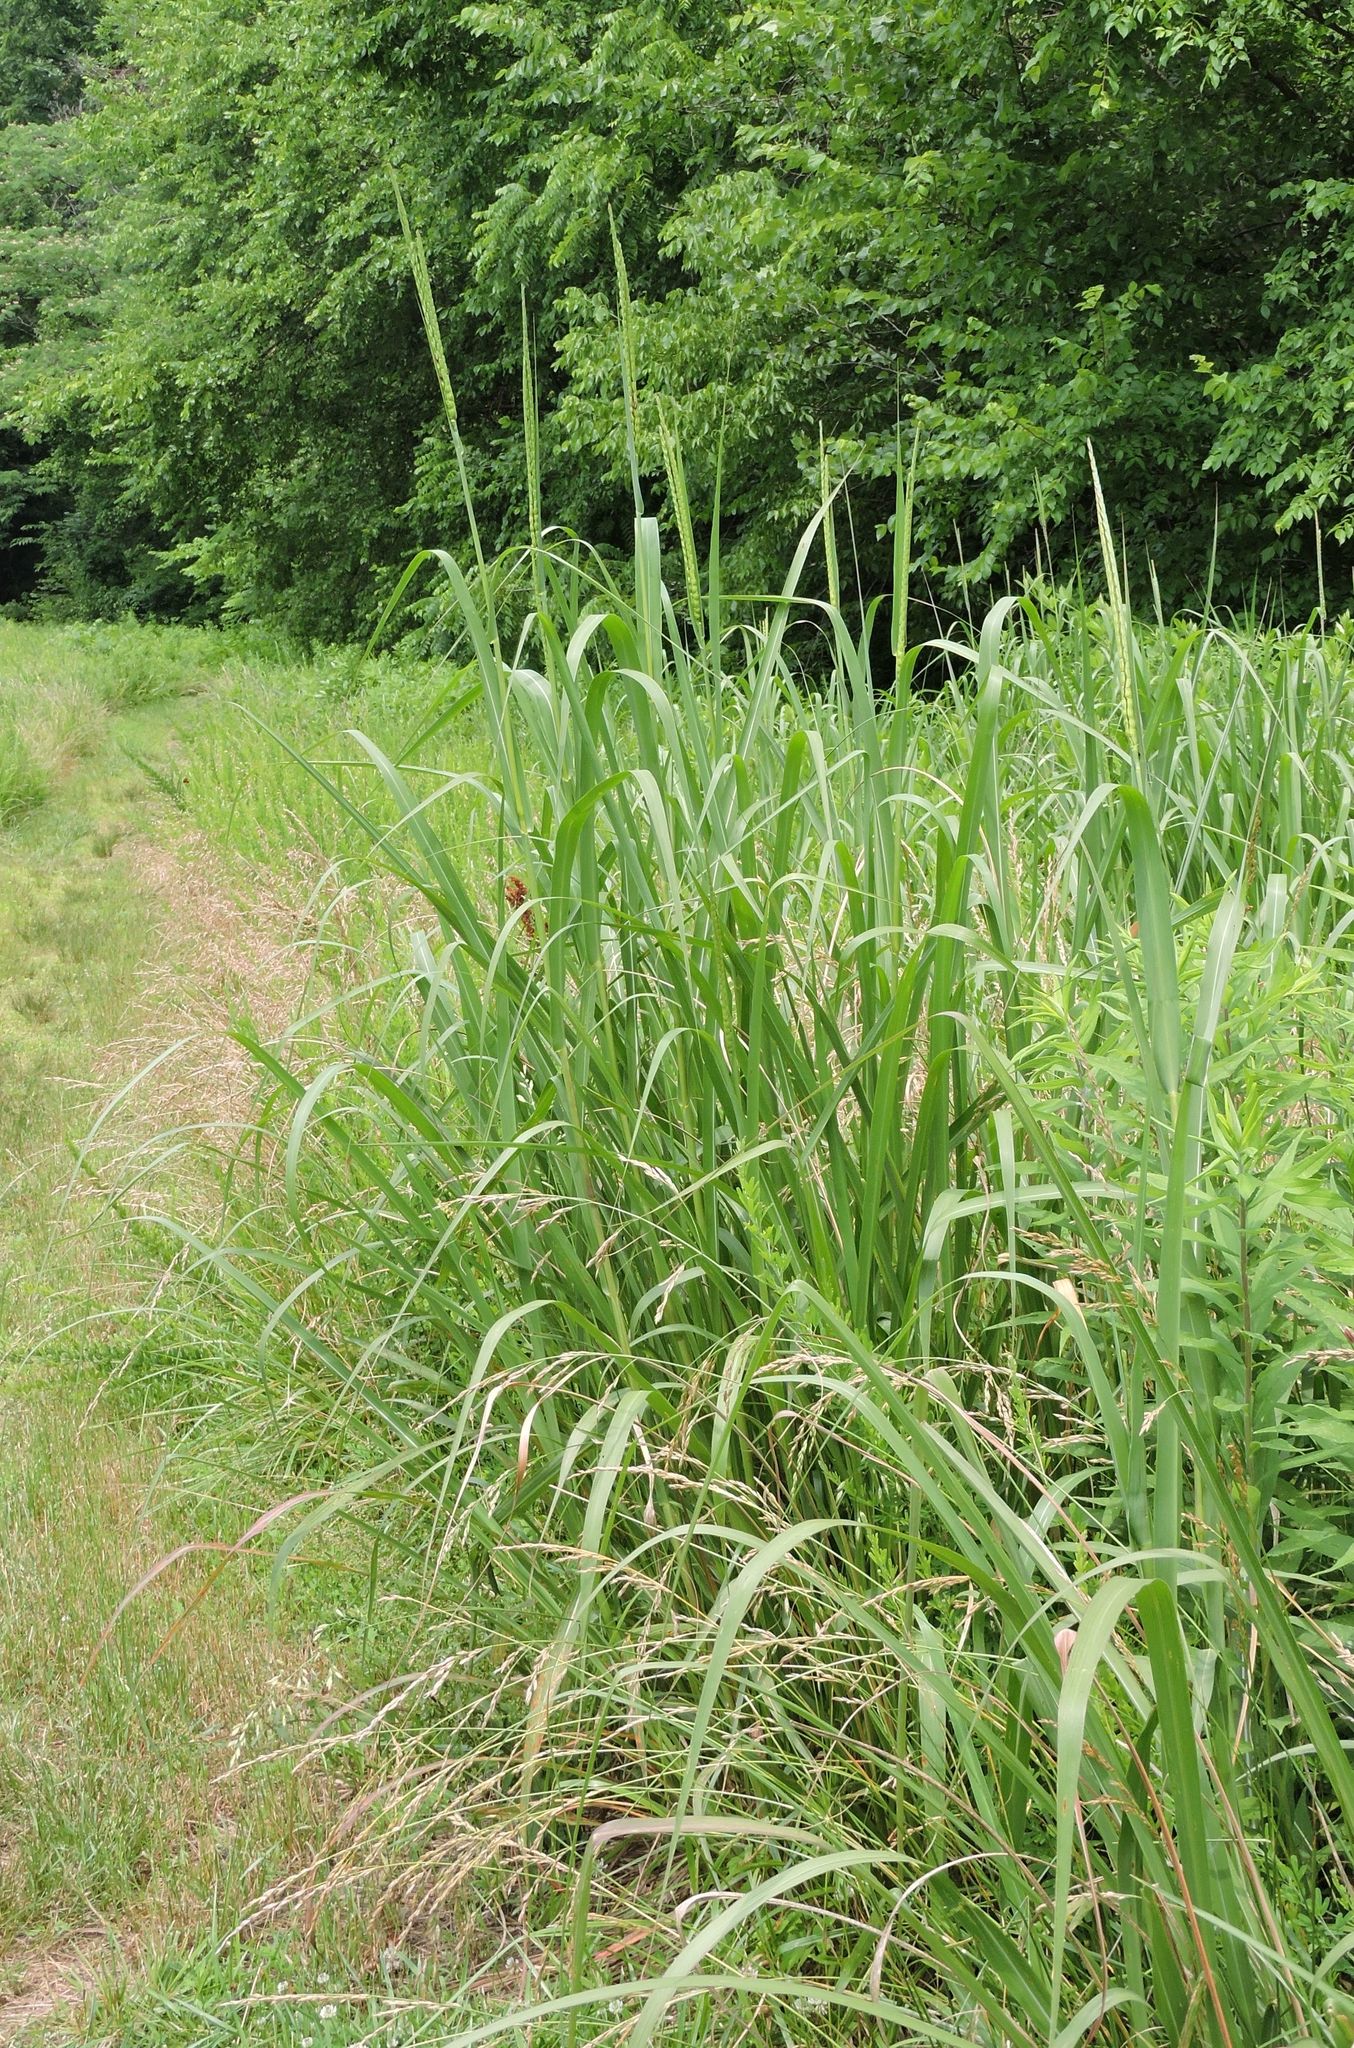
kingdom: Plantae
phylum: Tracheophyta
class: Liliopsida
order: Poales
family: Poaceae
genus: Tripsacum
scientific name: Tripsacum dactyloides
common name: Buffalo-grass
